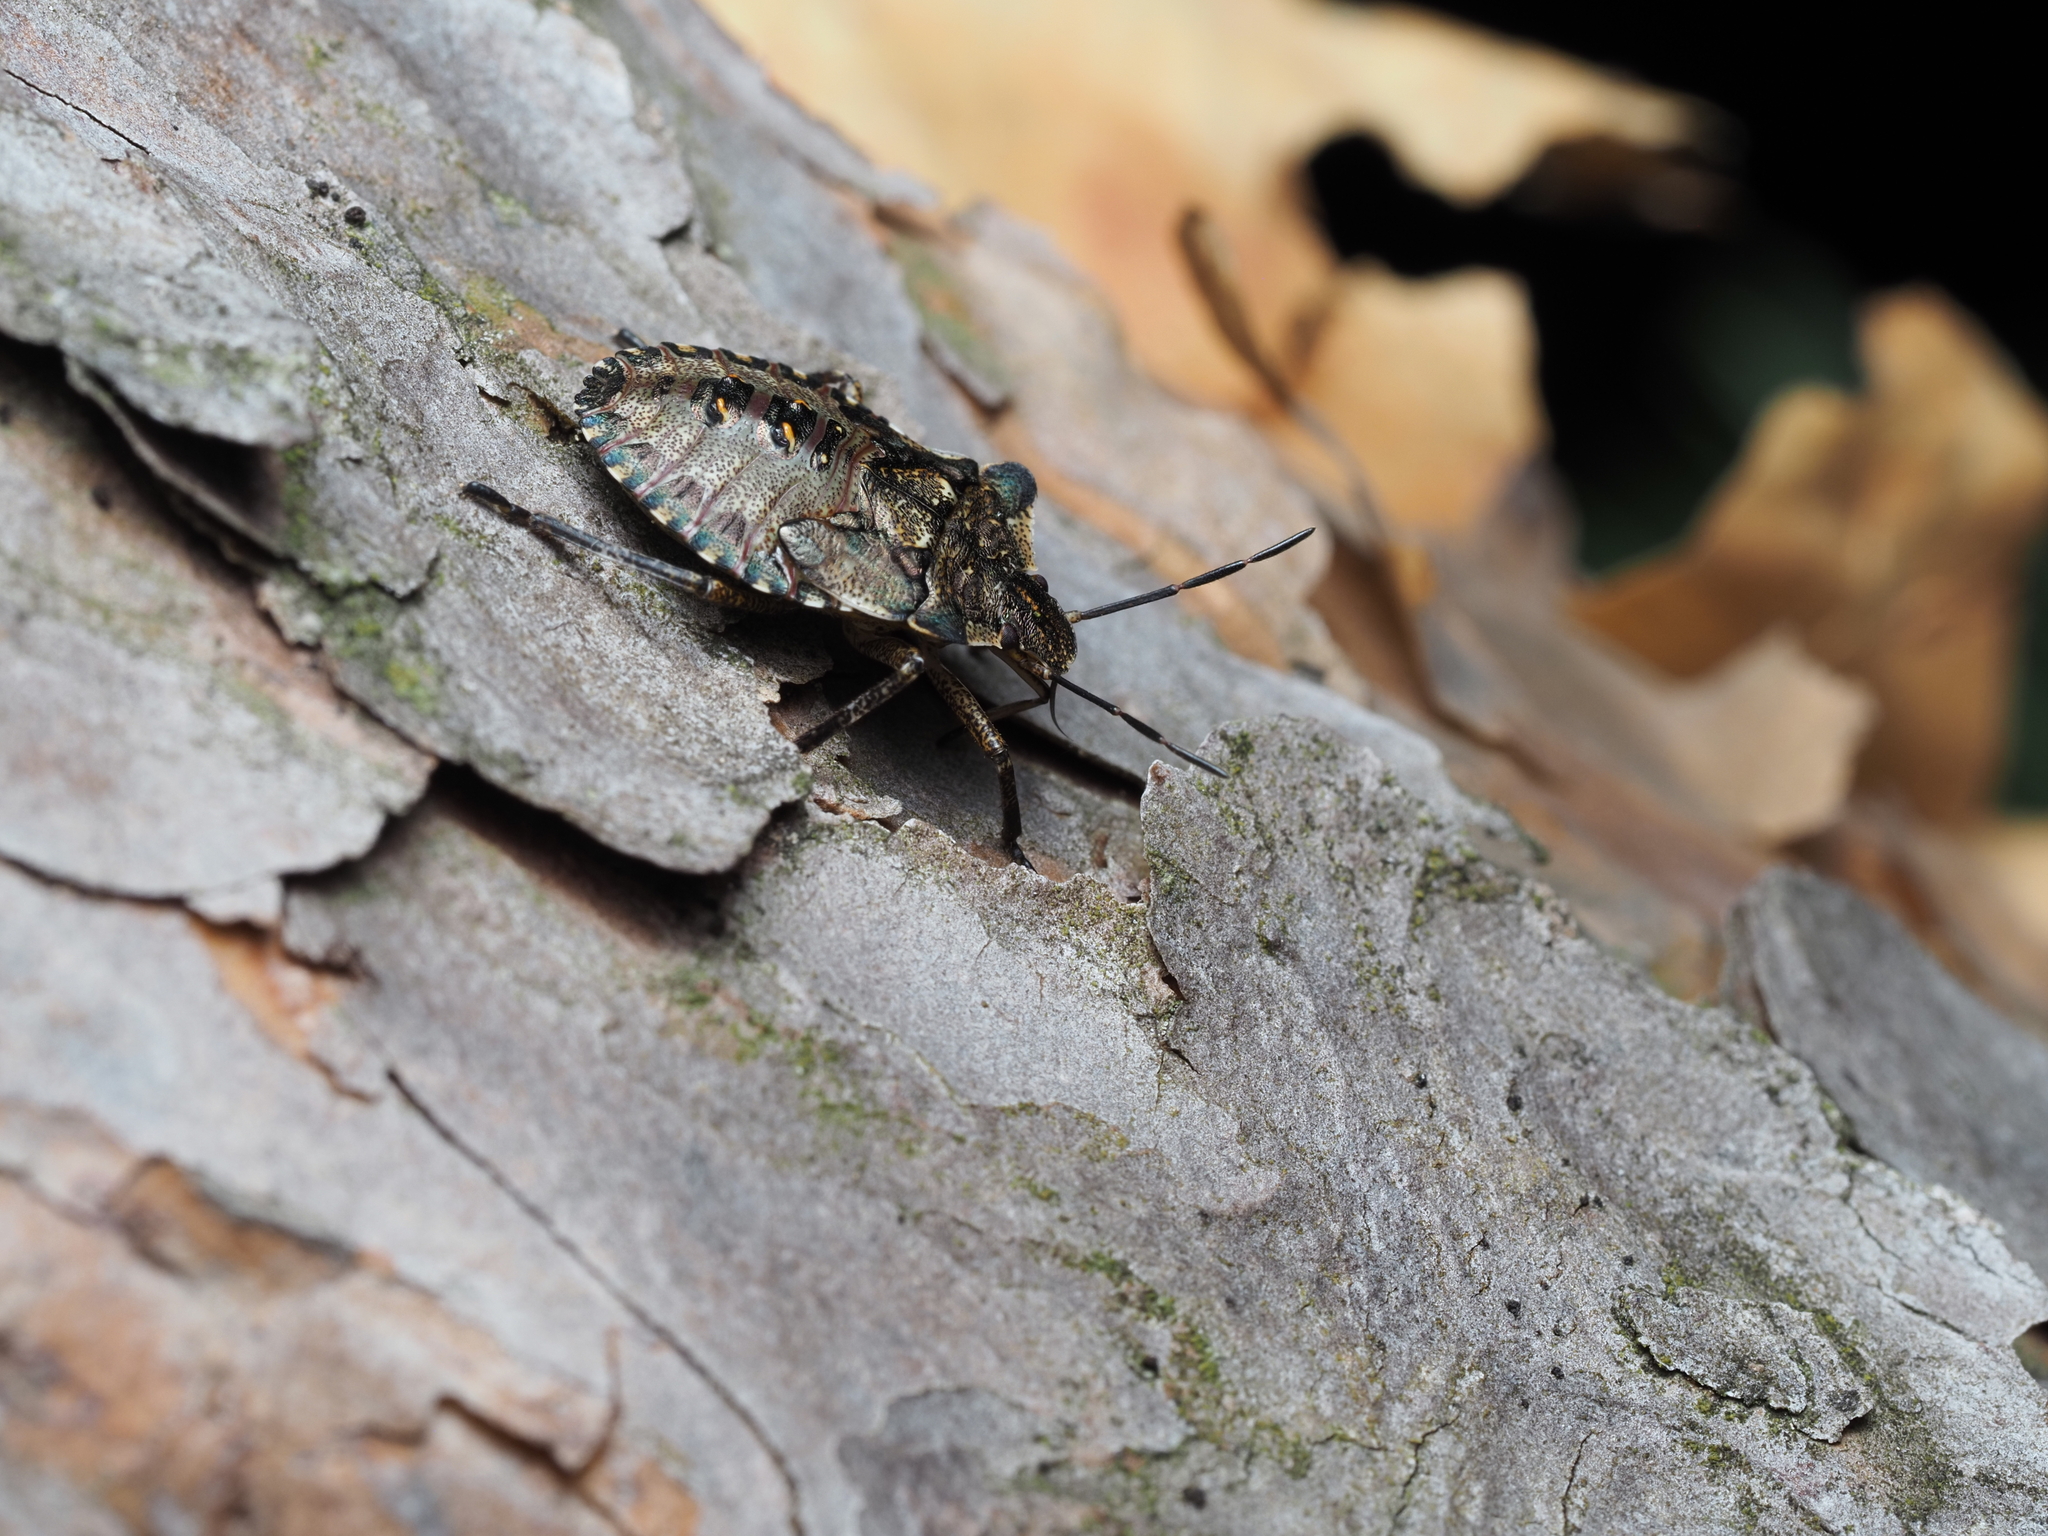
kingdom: Animalia
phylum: Arthropoda
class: Insecta
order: Hemiptera
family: Pentatomidae
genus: Pentatoma
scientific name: Pentatoma rufipes
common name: Forest bug
